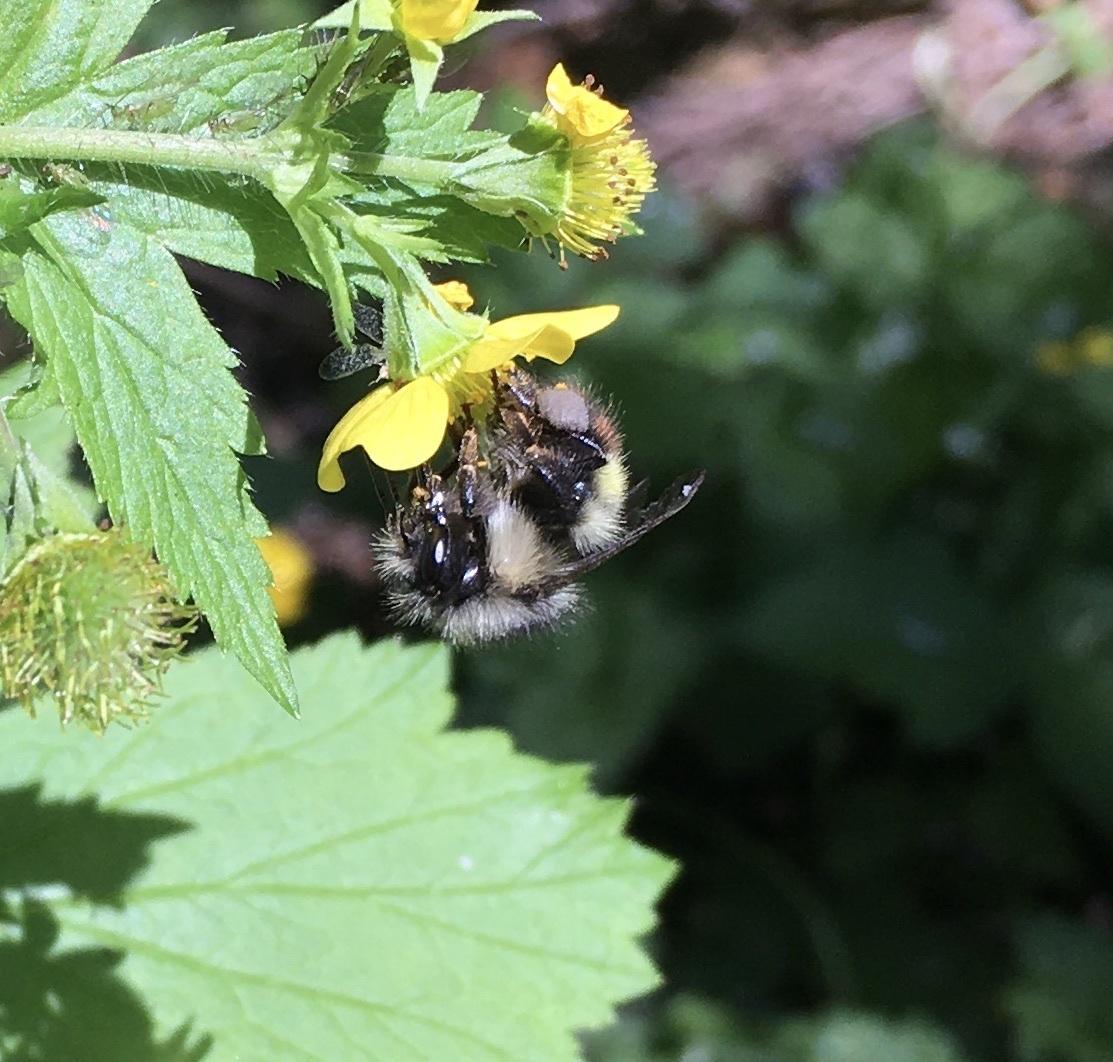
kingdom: Animalia
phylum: Arthropoda
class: Insecta
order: Hymenoptera
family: Apidae
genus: Bombus
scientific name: Bombus flavifrons
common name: Yellow head bumble bee
